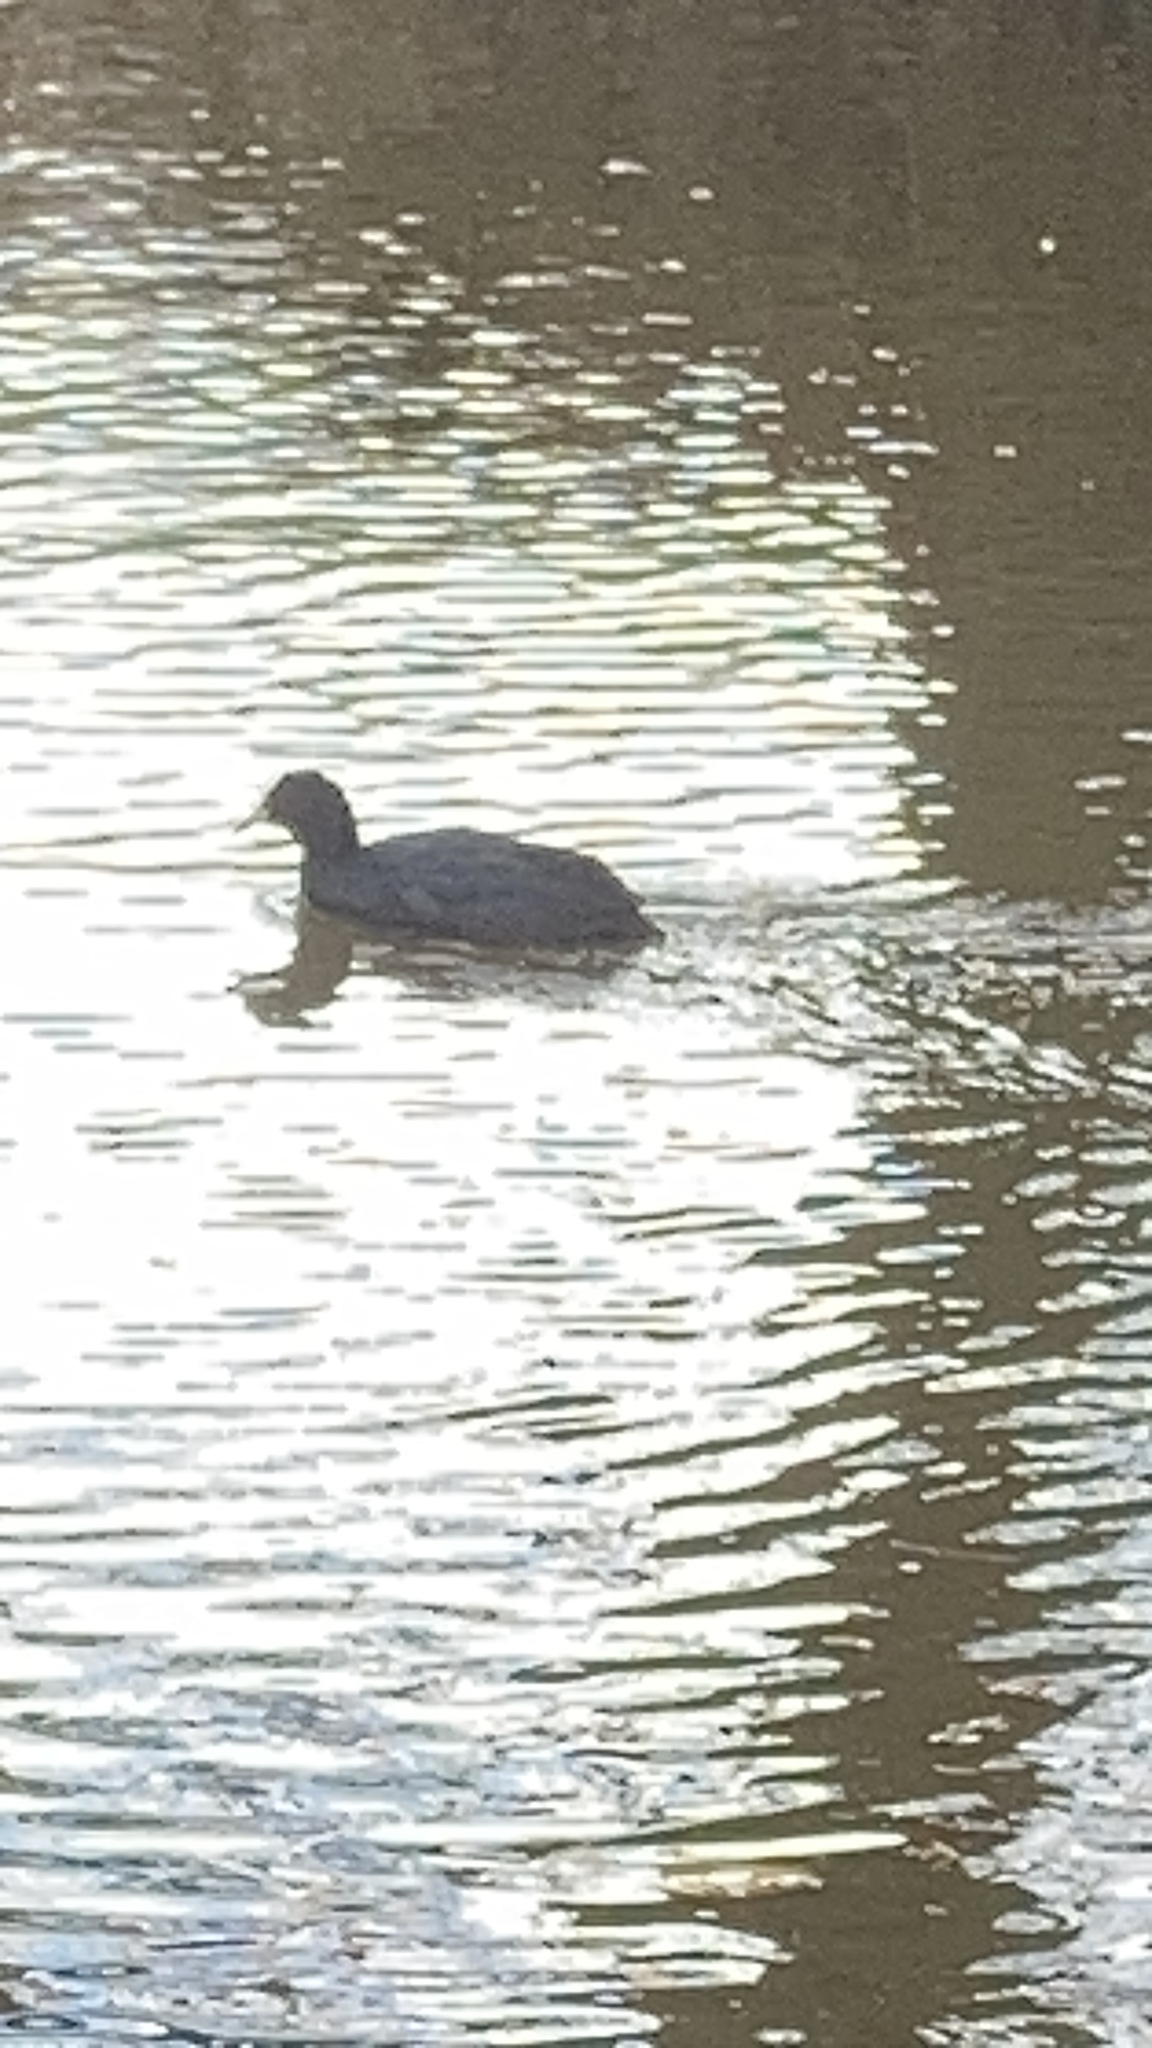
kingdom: Animalia
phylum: Chordata
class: Aves
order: Gruiformes
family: Rallidae
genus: Fulica
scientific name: Fulica atra
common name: Eurasian coot
